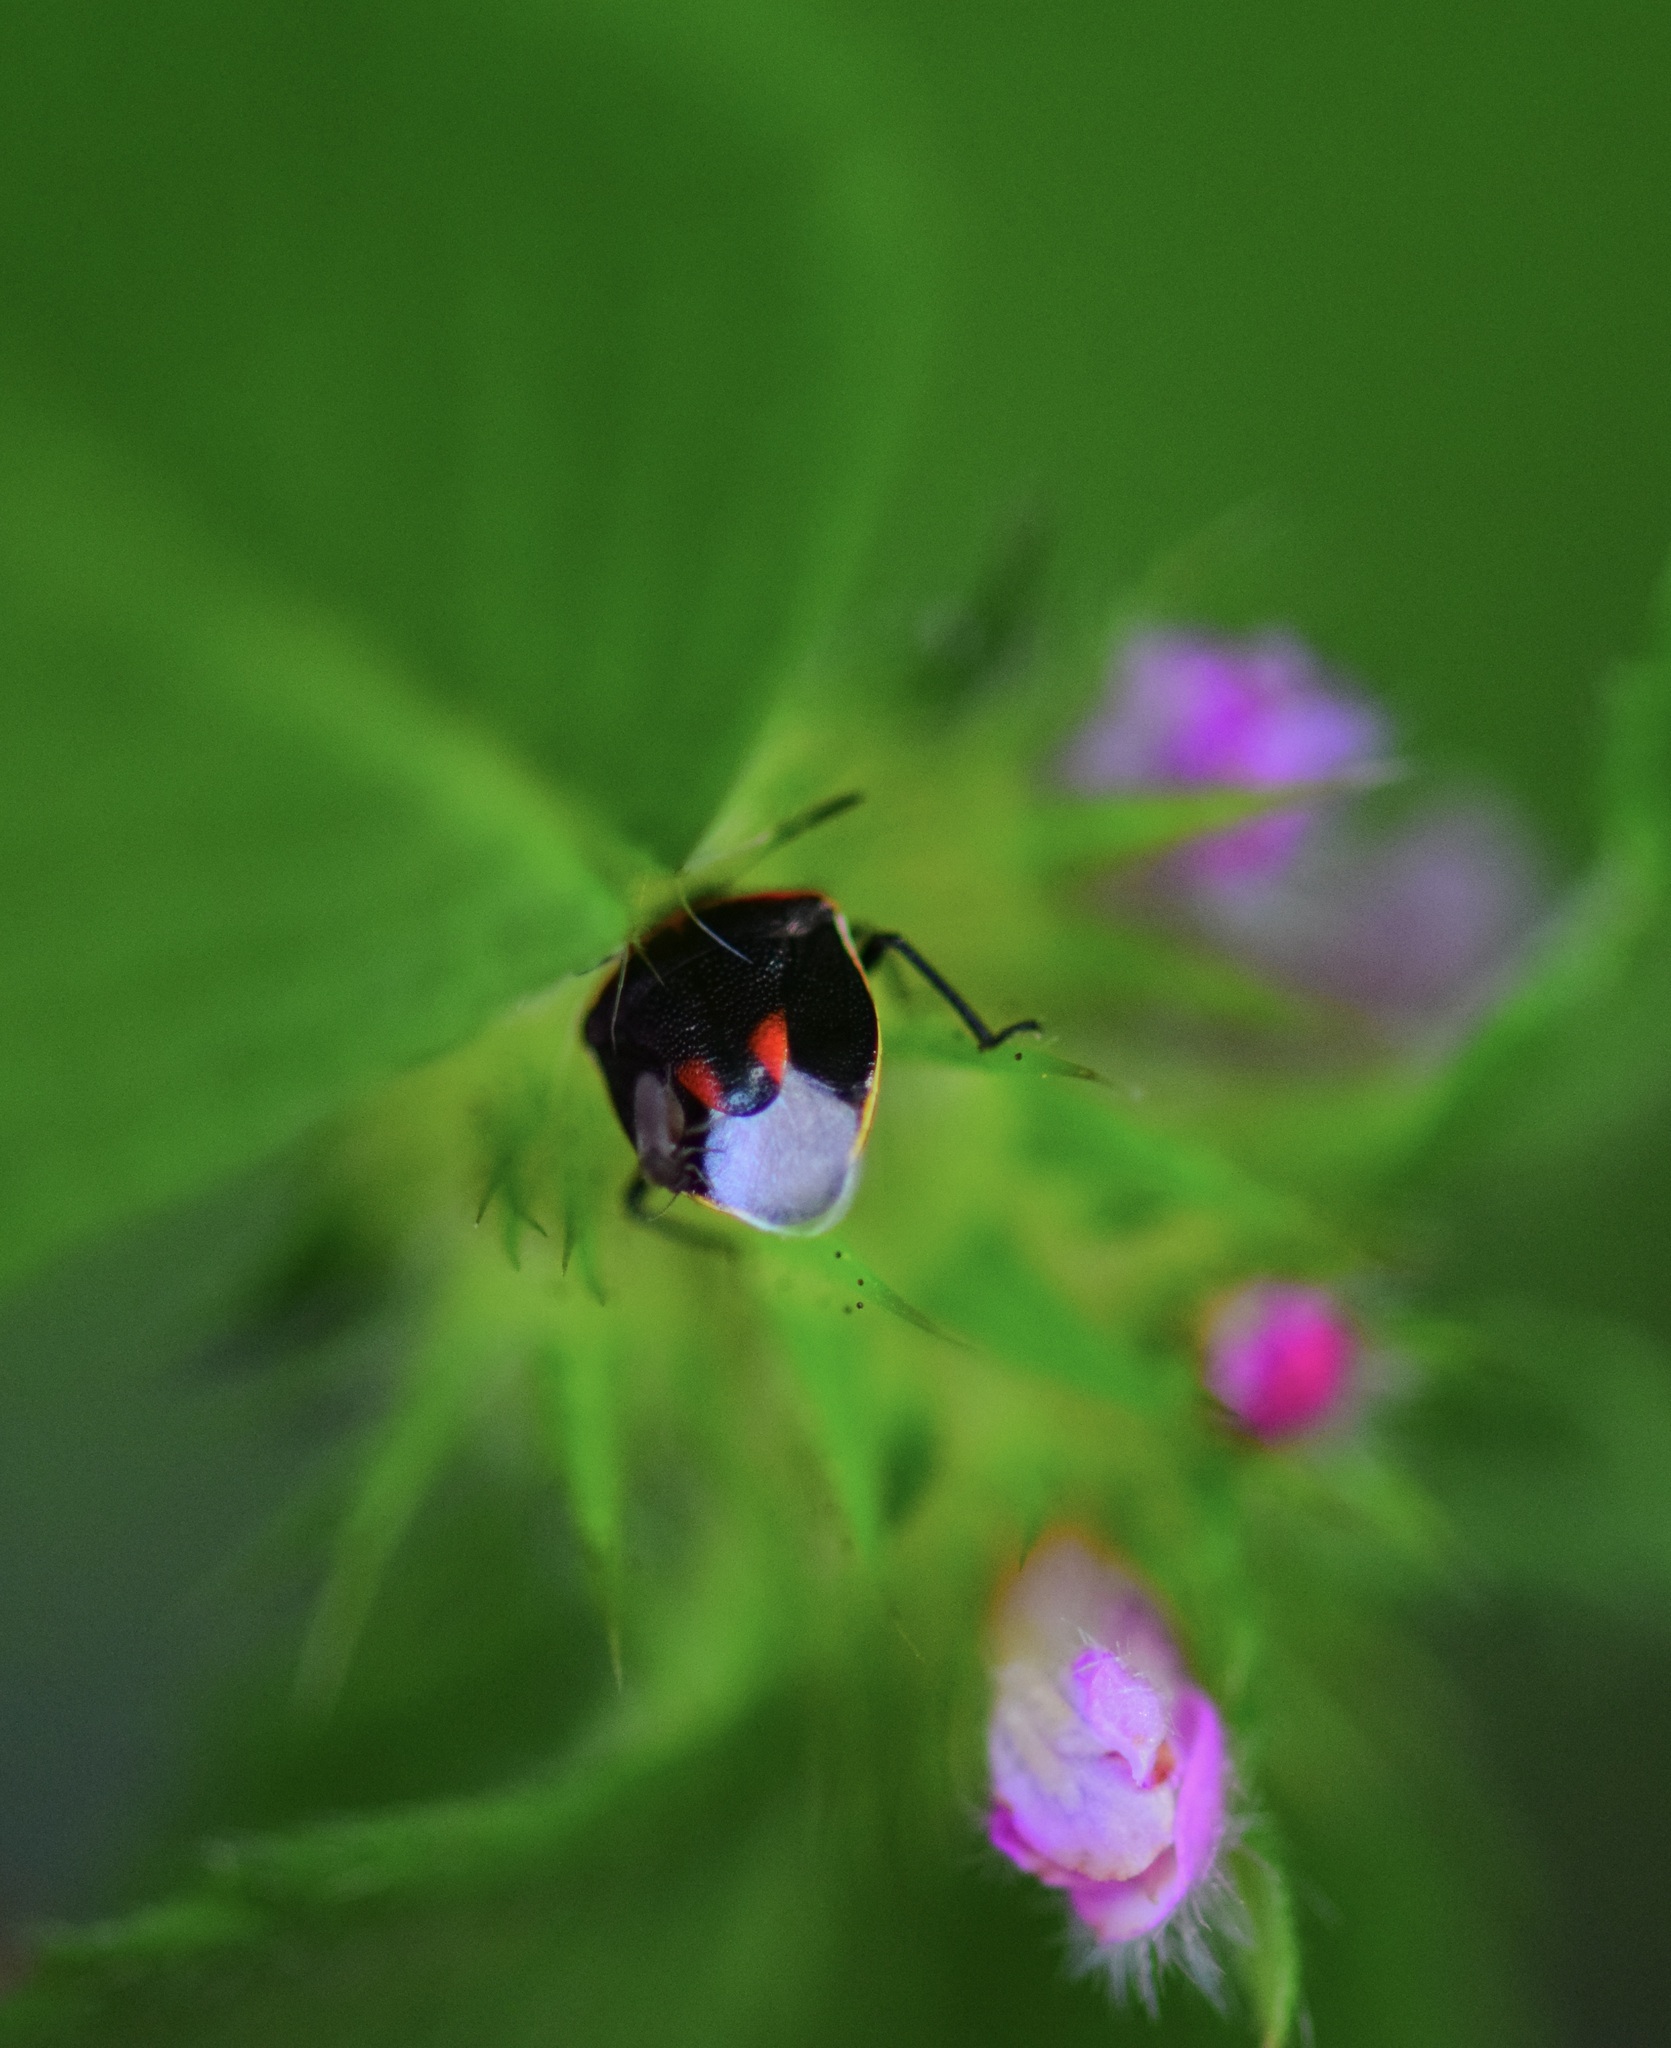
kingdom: Animalia
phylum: Arthropoda
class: Insecta
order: Hemiptera
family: Pentatomidae
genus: Cosmopepla
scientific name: Cosmopepla lintneriana
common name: Twice-stabbed stink bug
